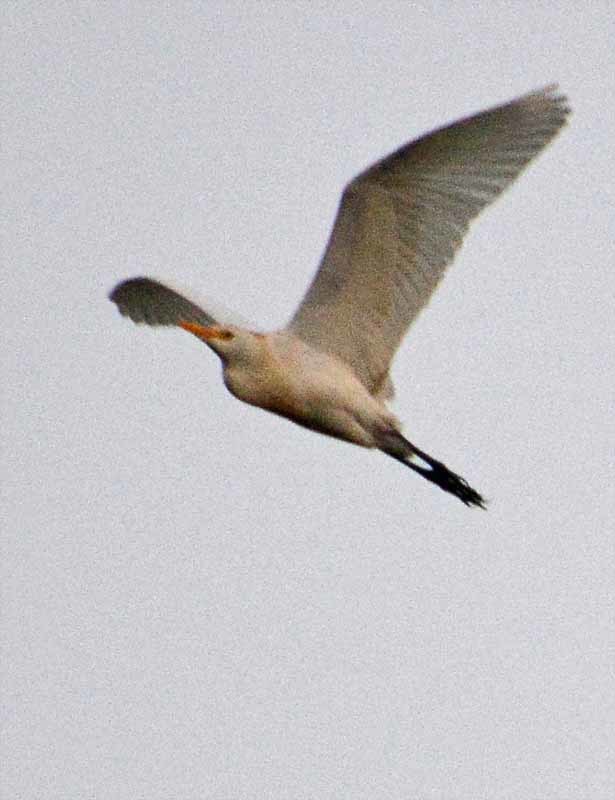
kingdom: Animalia
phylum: Chordata
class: Aves
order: Pelecaniformes
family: Ardeidae
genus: Bubulcus
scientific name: Bubulcus ibis
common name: Cattle egret
